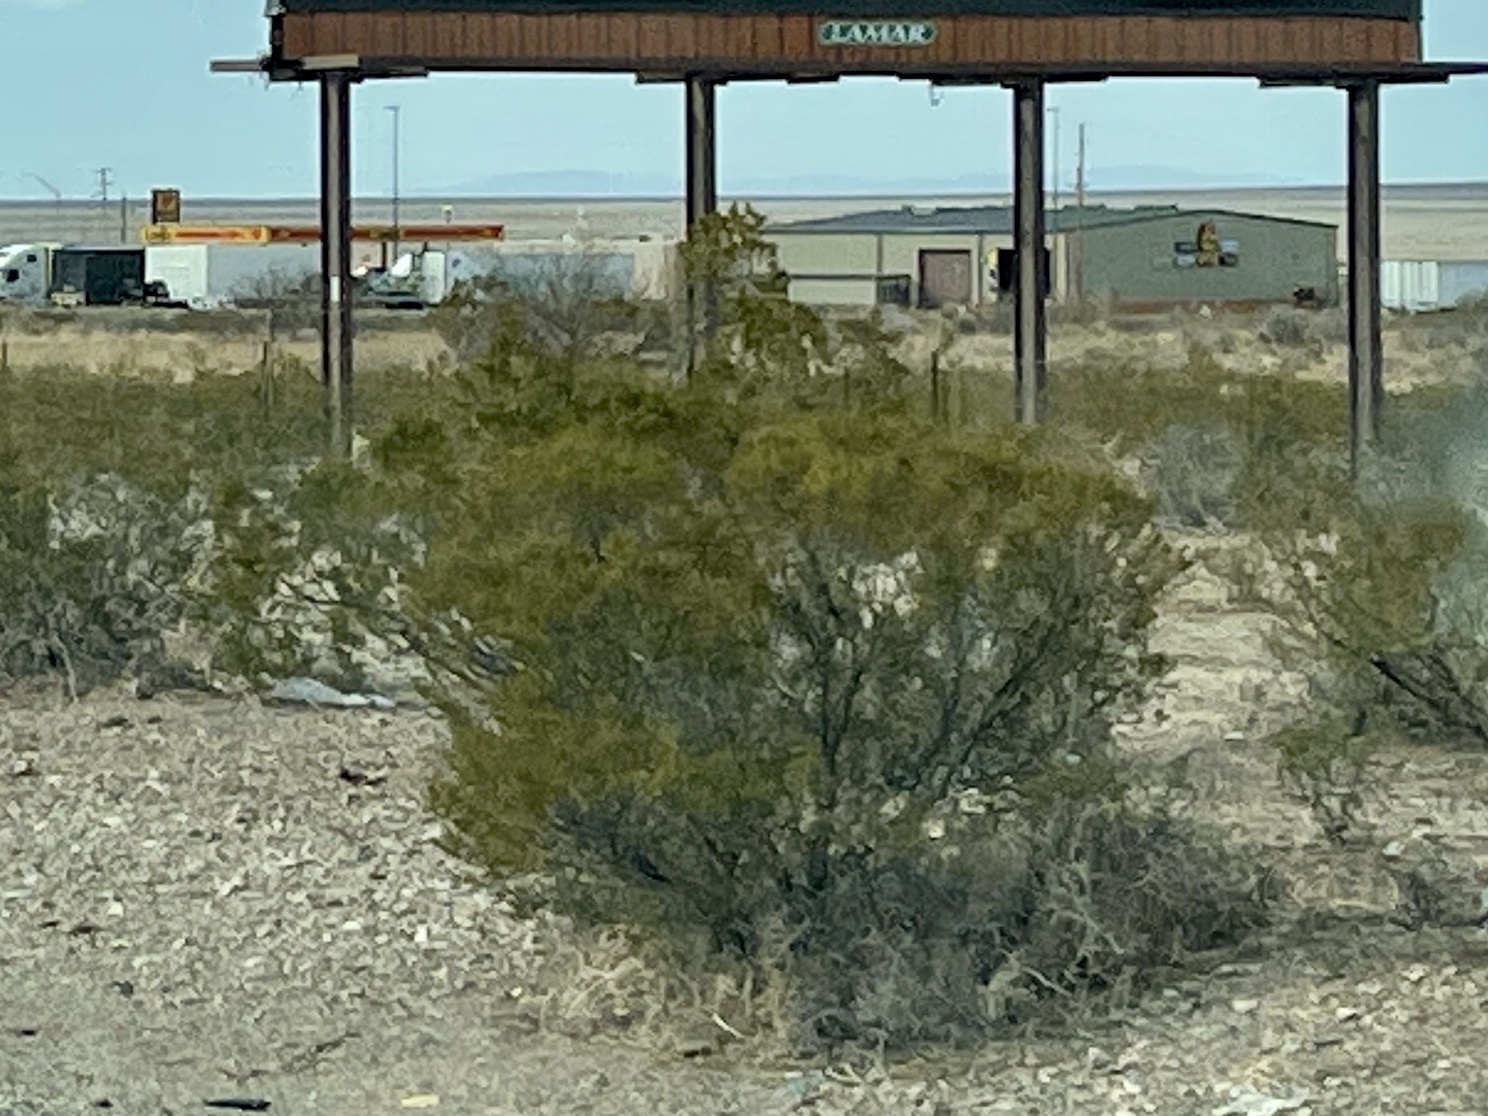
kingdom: Plantae
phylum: Tracheophyta
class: Magnoliopsida
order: Zygophyllales
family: Zygophyllaceae
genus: Larrea
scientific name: Larrea tridentata
